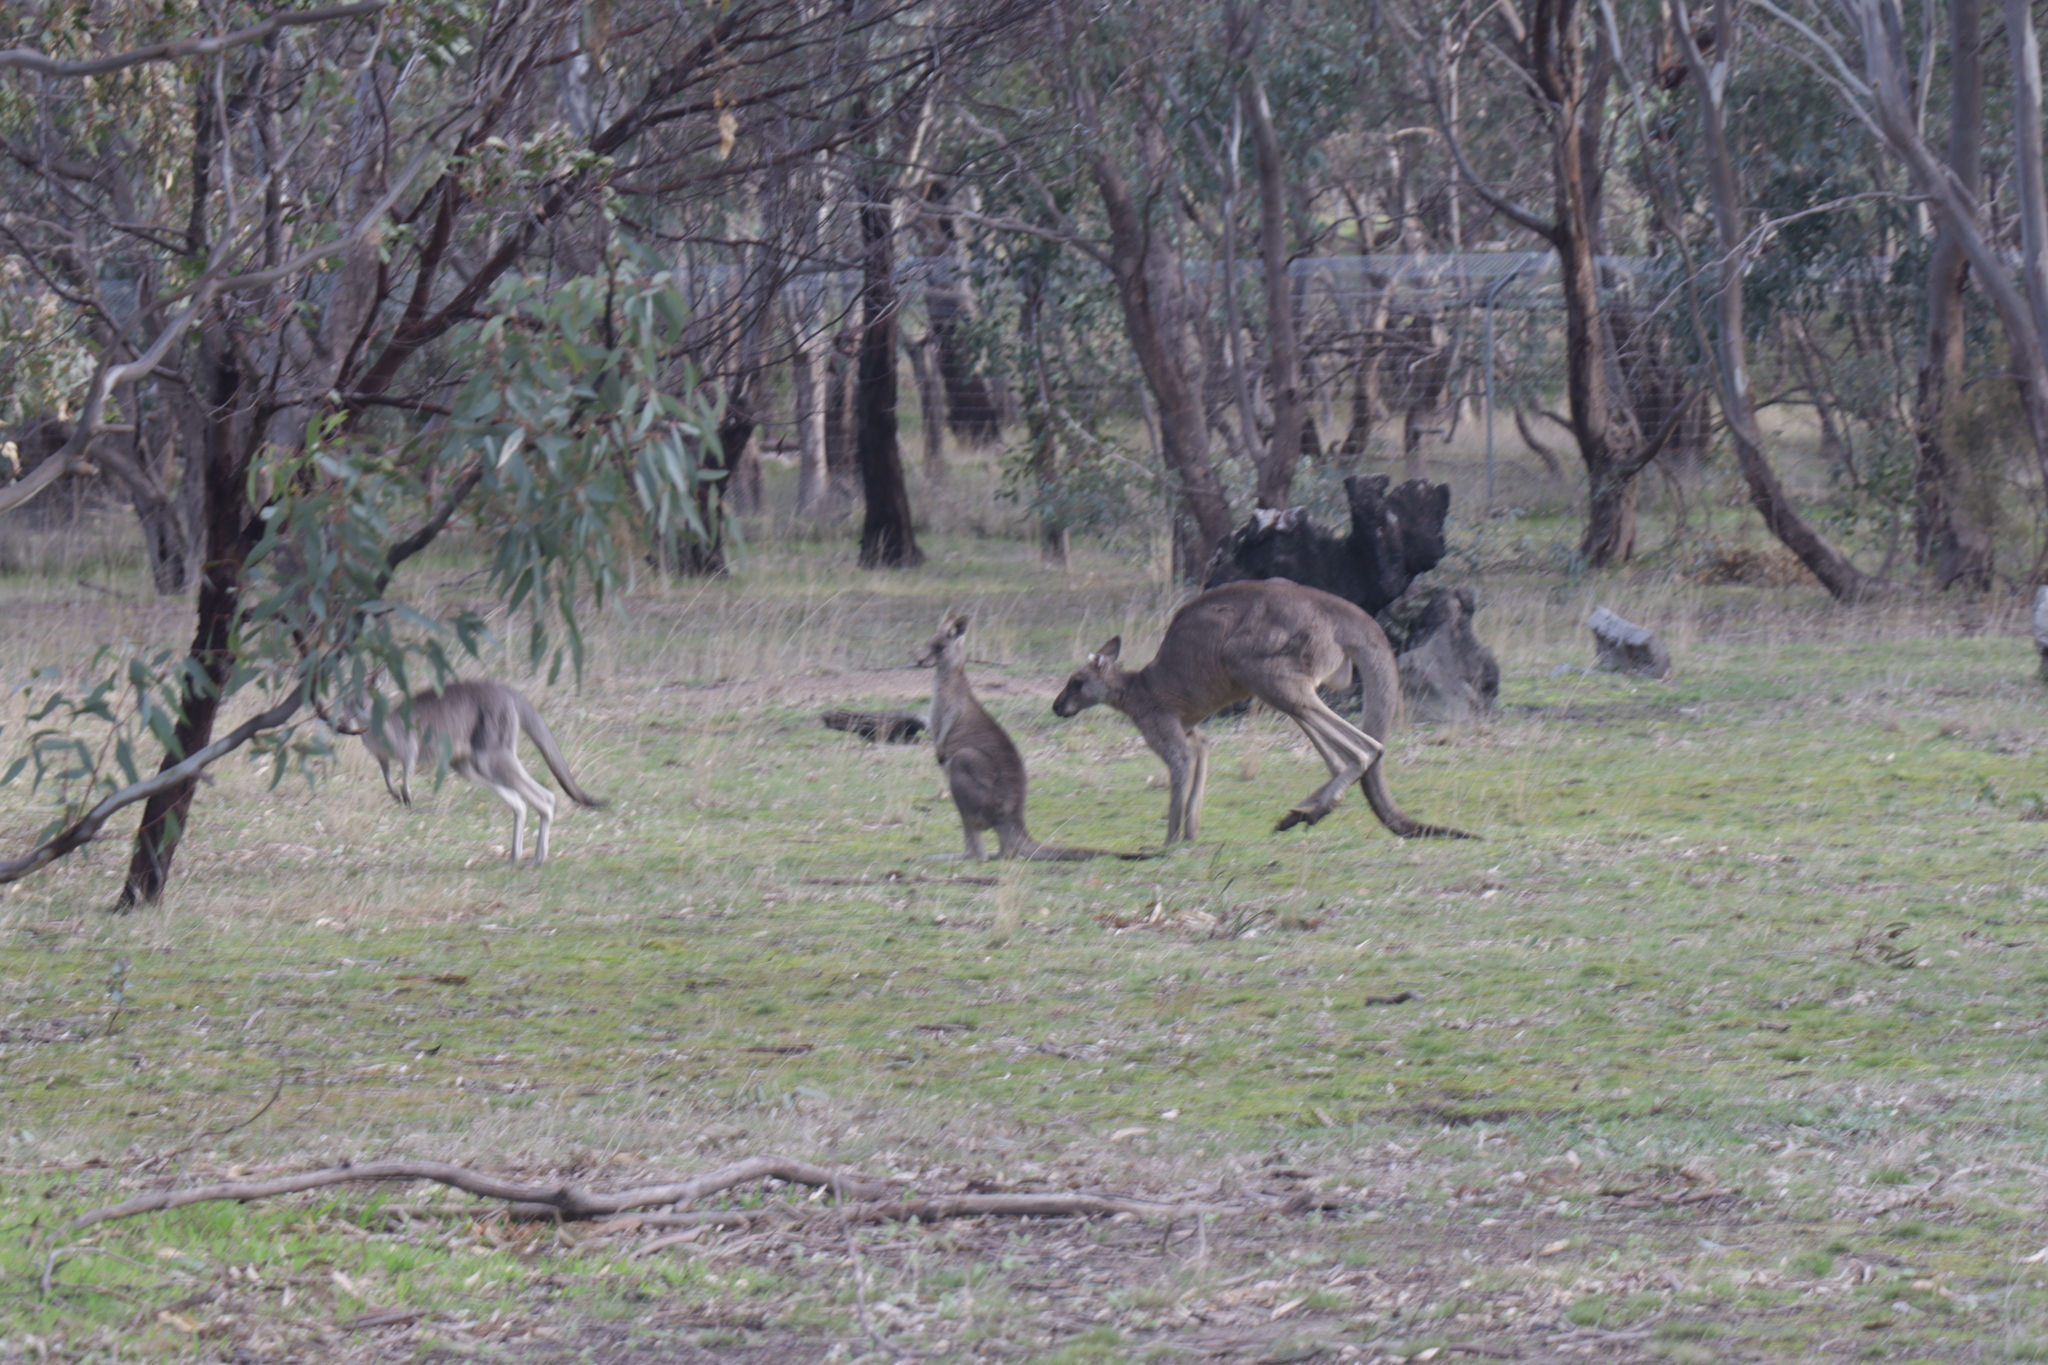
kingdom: Animalia
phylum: Chordata
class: Mammalia
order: Diprotodontia
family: Macropodidae
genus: Macropus
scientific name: Macropus giganteus
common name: Eastern grey kangaroo
